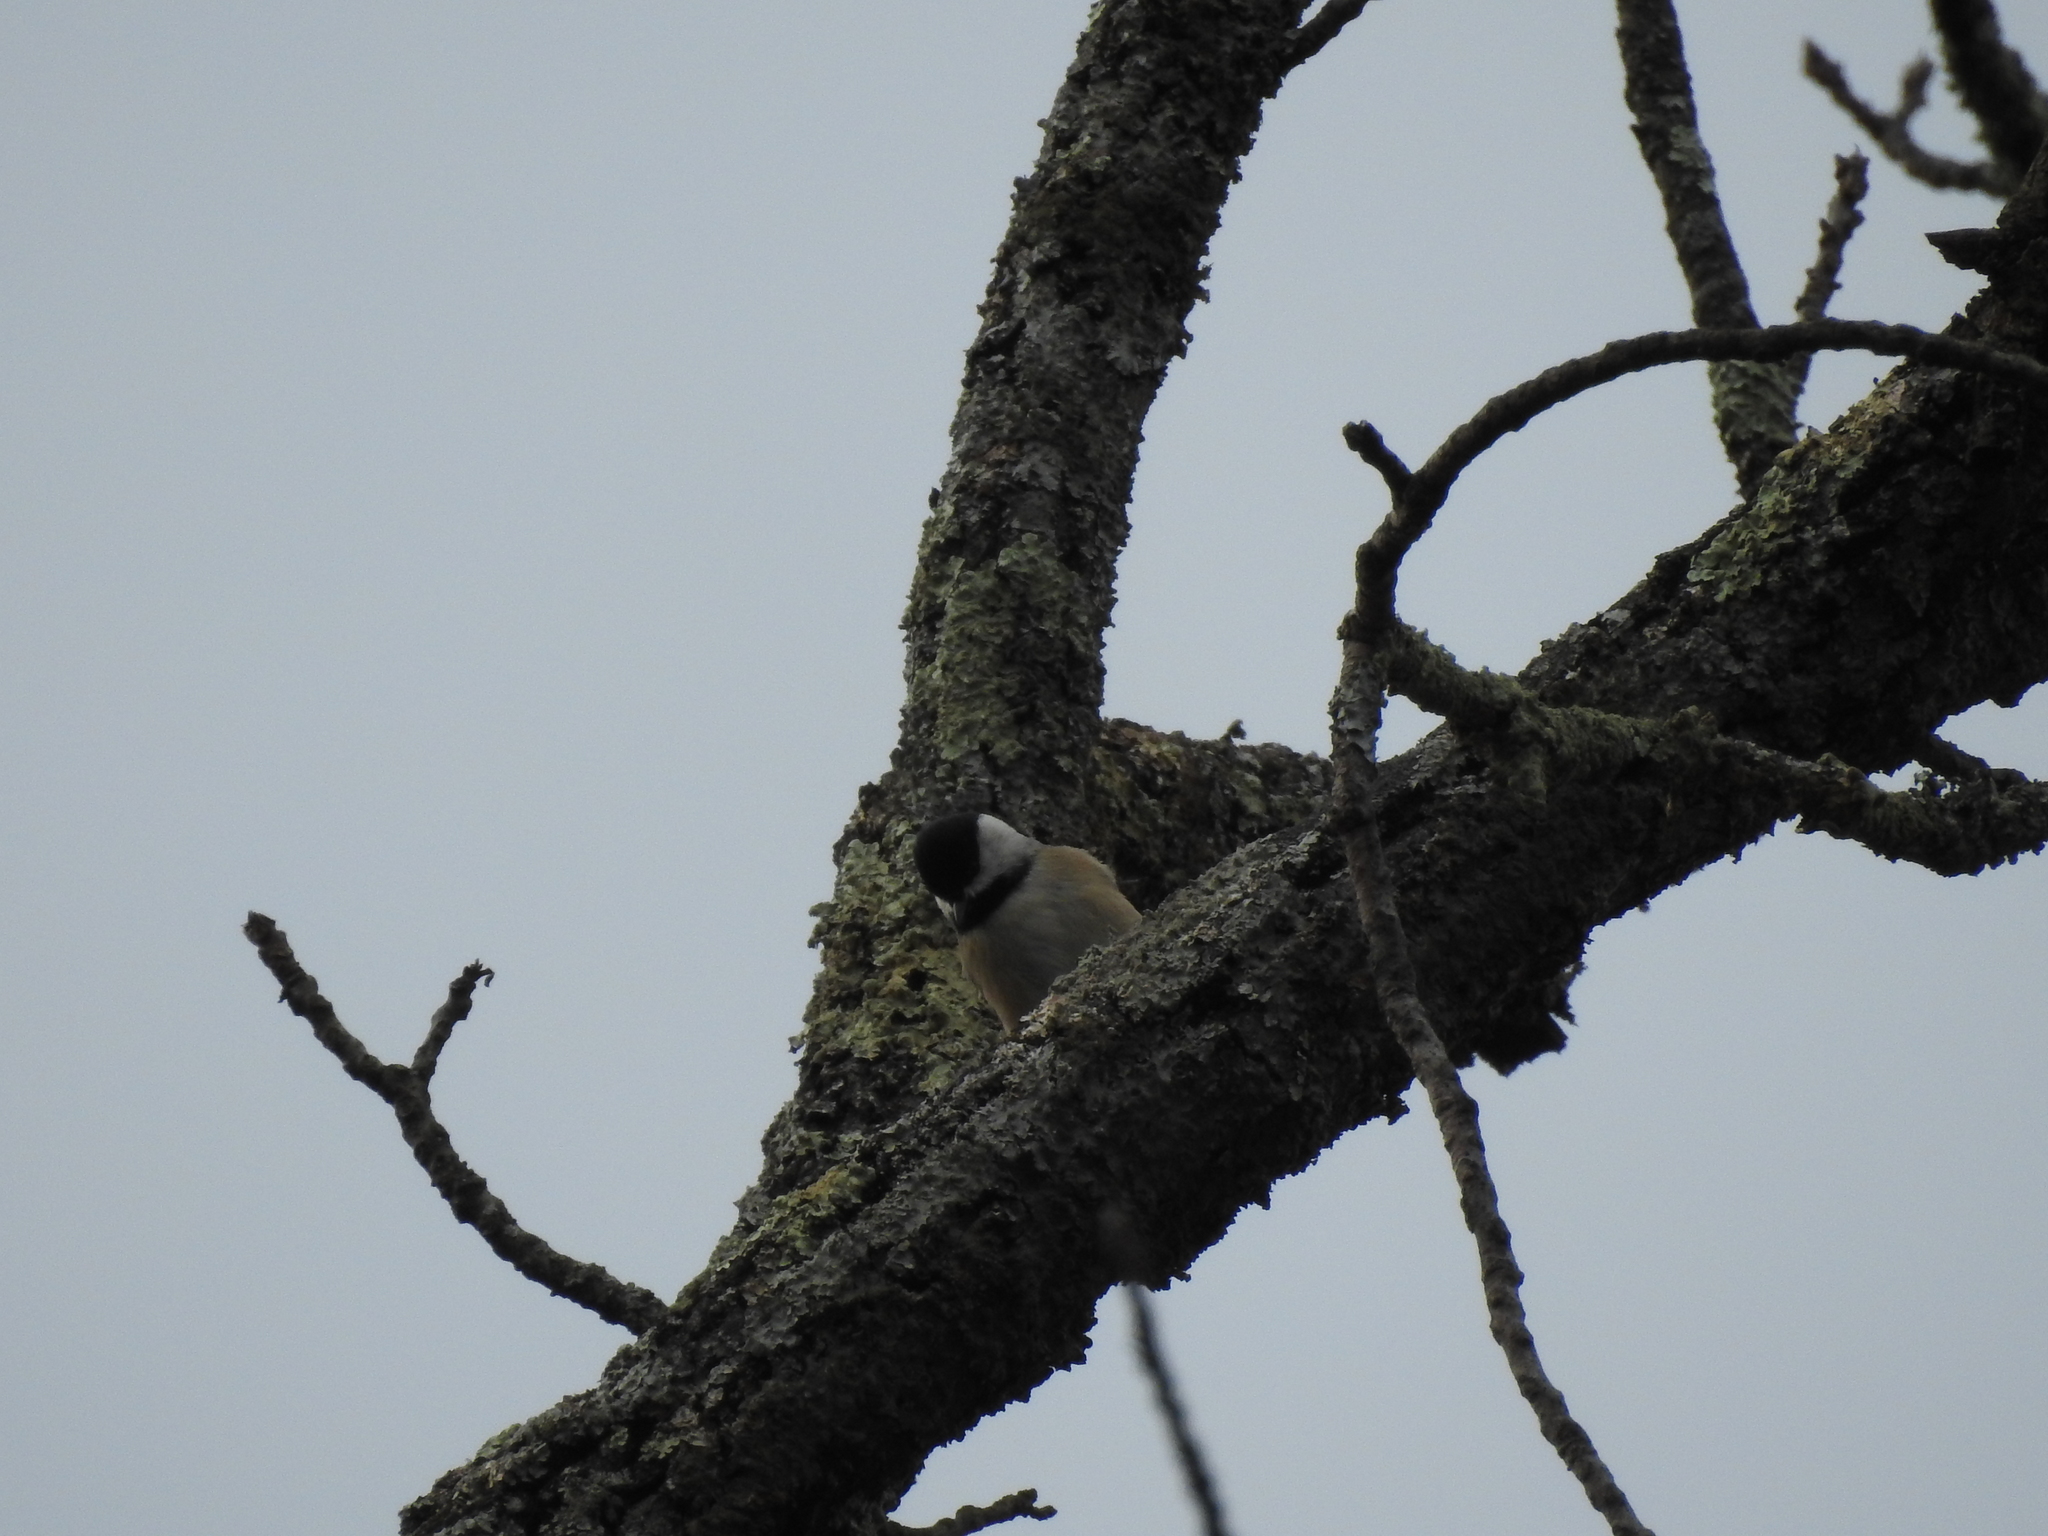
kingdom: Animalia
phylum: Chordata
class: Aves
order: Passeriformes
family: Paridae
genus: Poecile
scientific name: Poecile carolinensis
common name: Carolina chickadee
